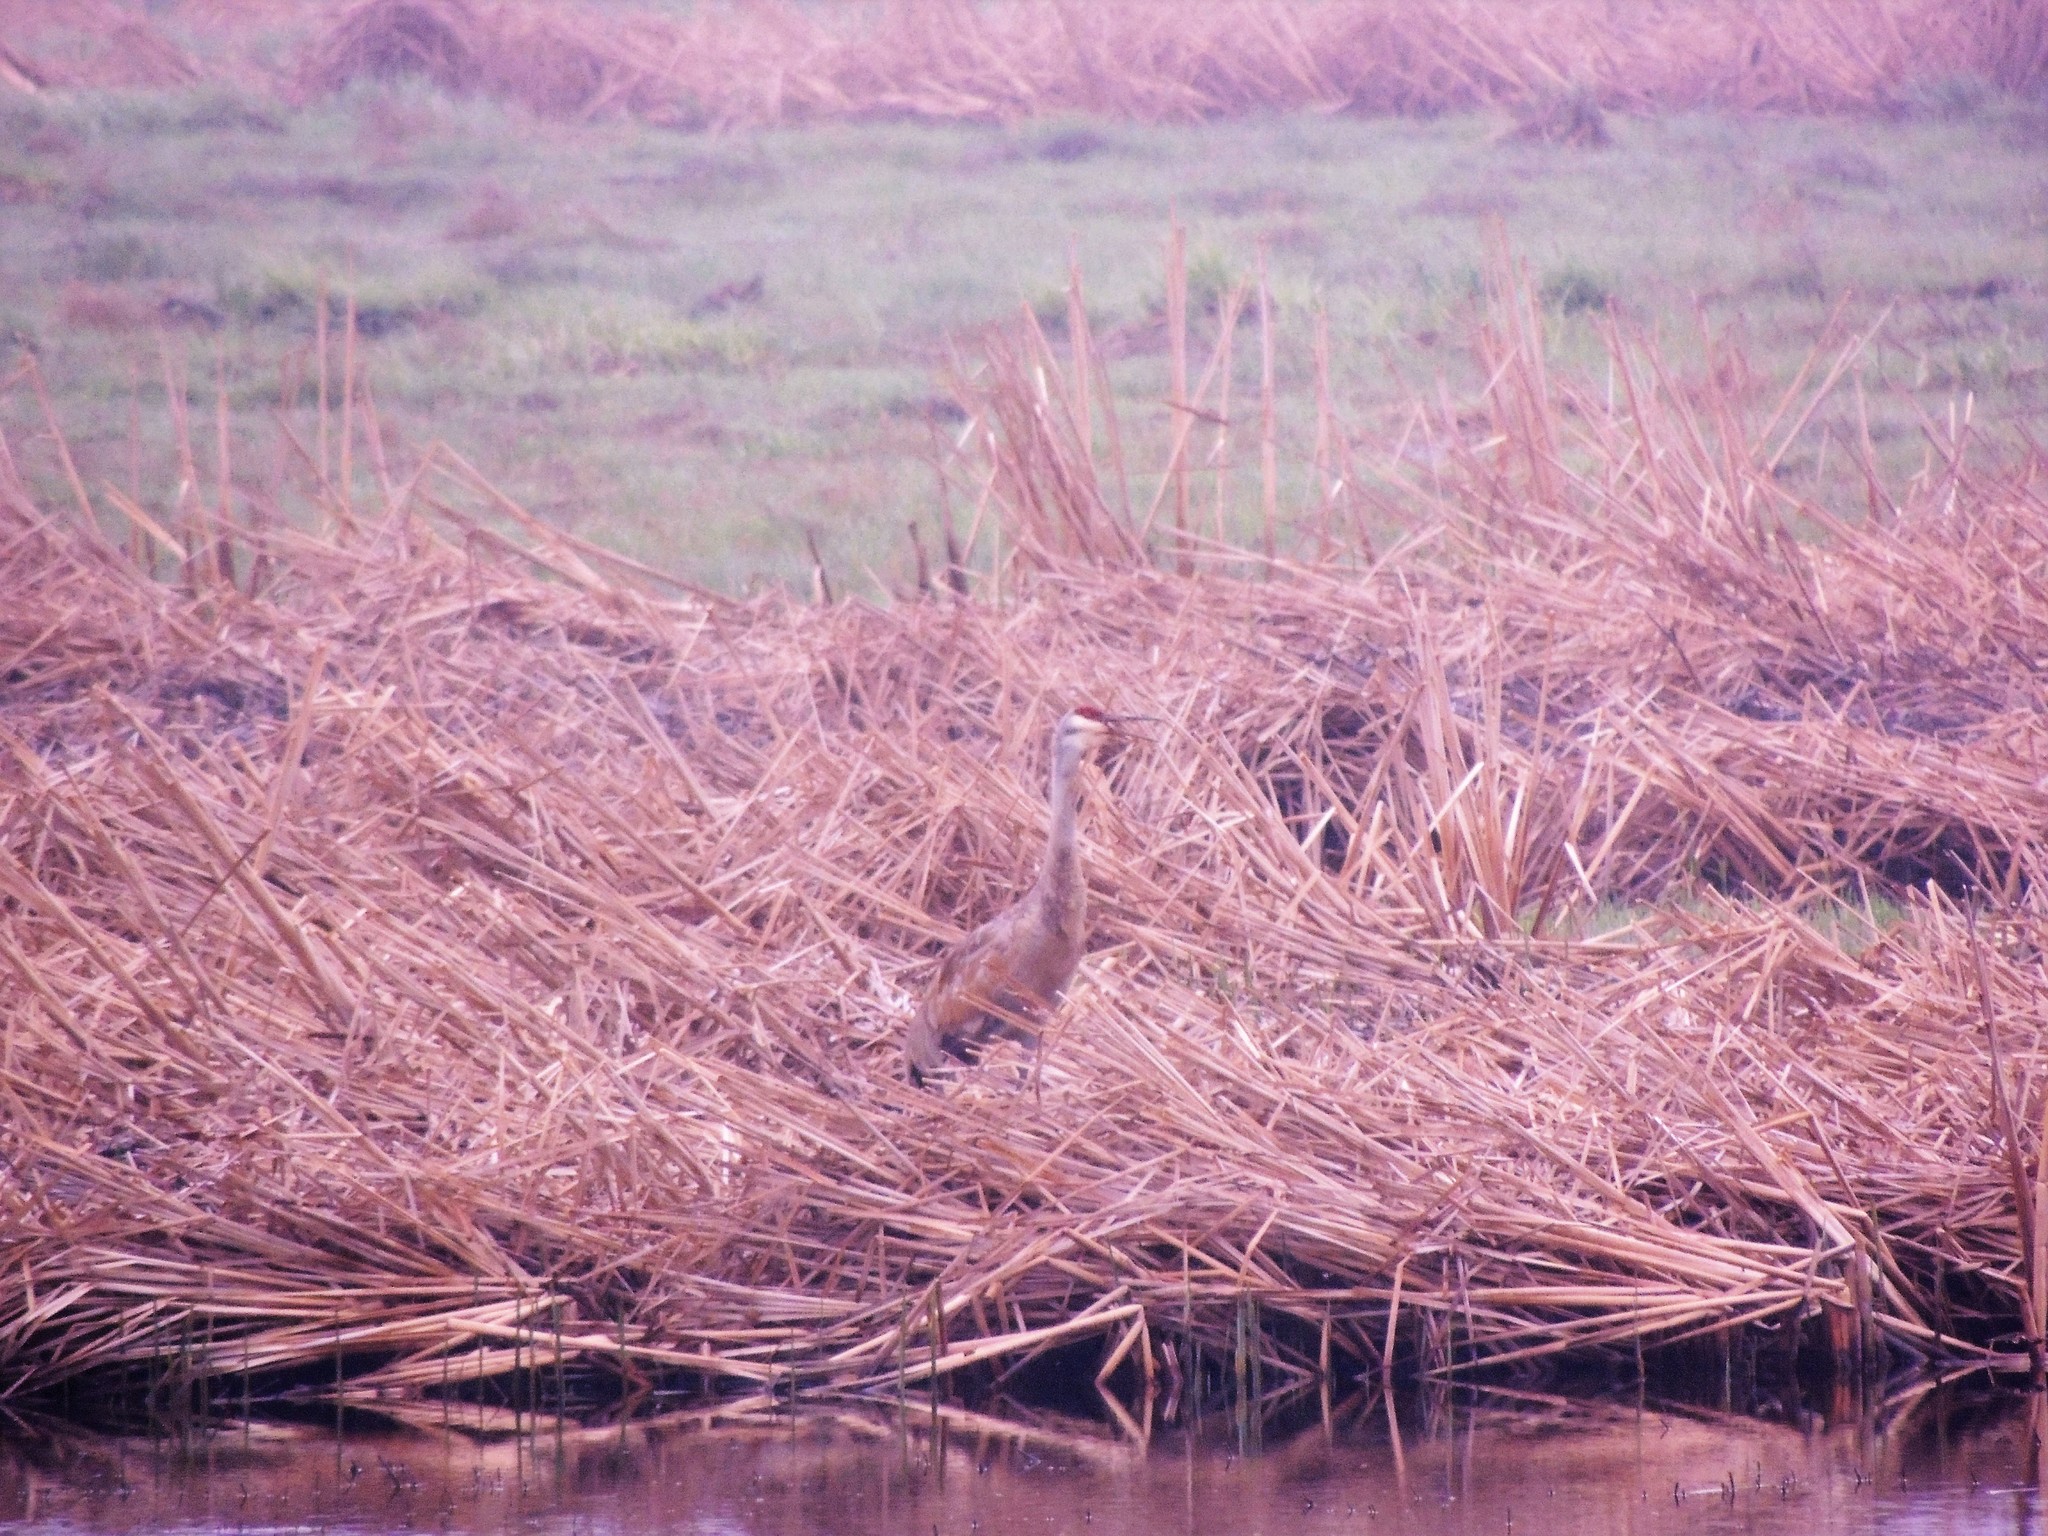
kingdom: Animalia
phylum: Chordata
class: Aves
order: Gruiformes
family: Gruidae
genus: Grus
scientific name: Grus canadensis
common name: Sandhill crane
